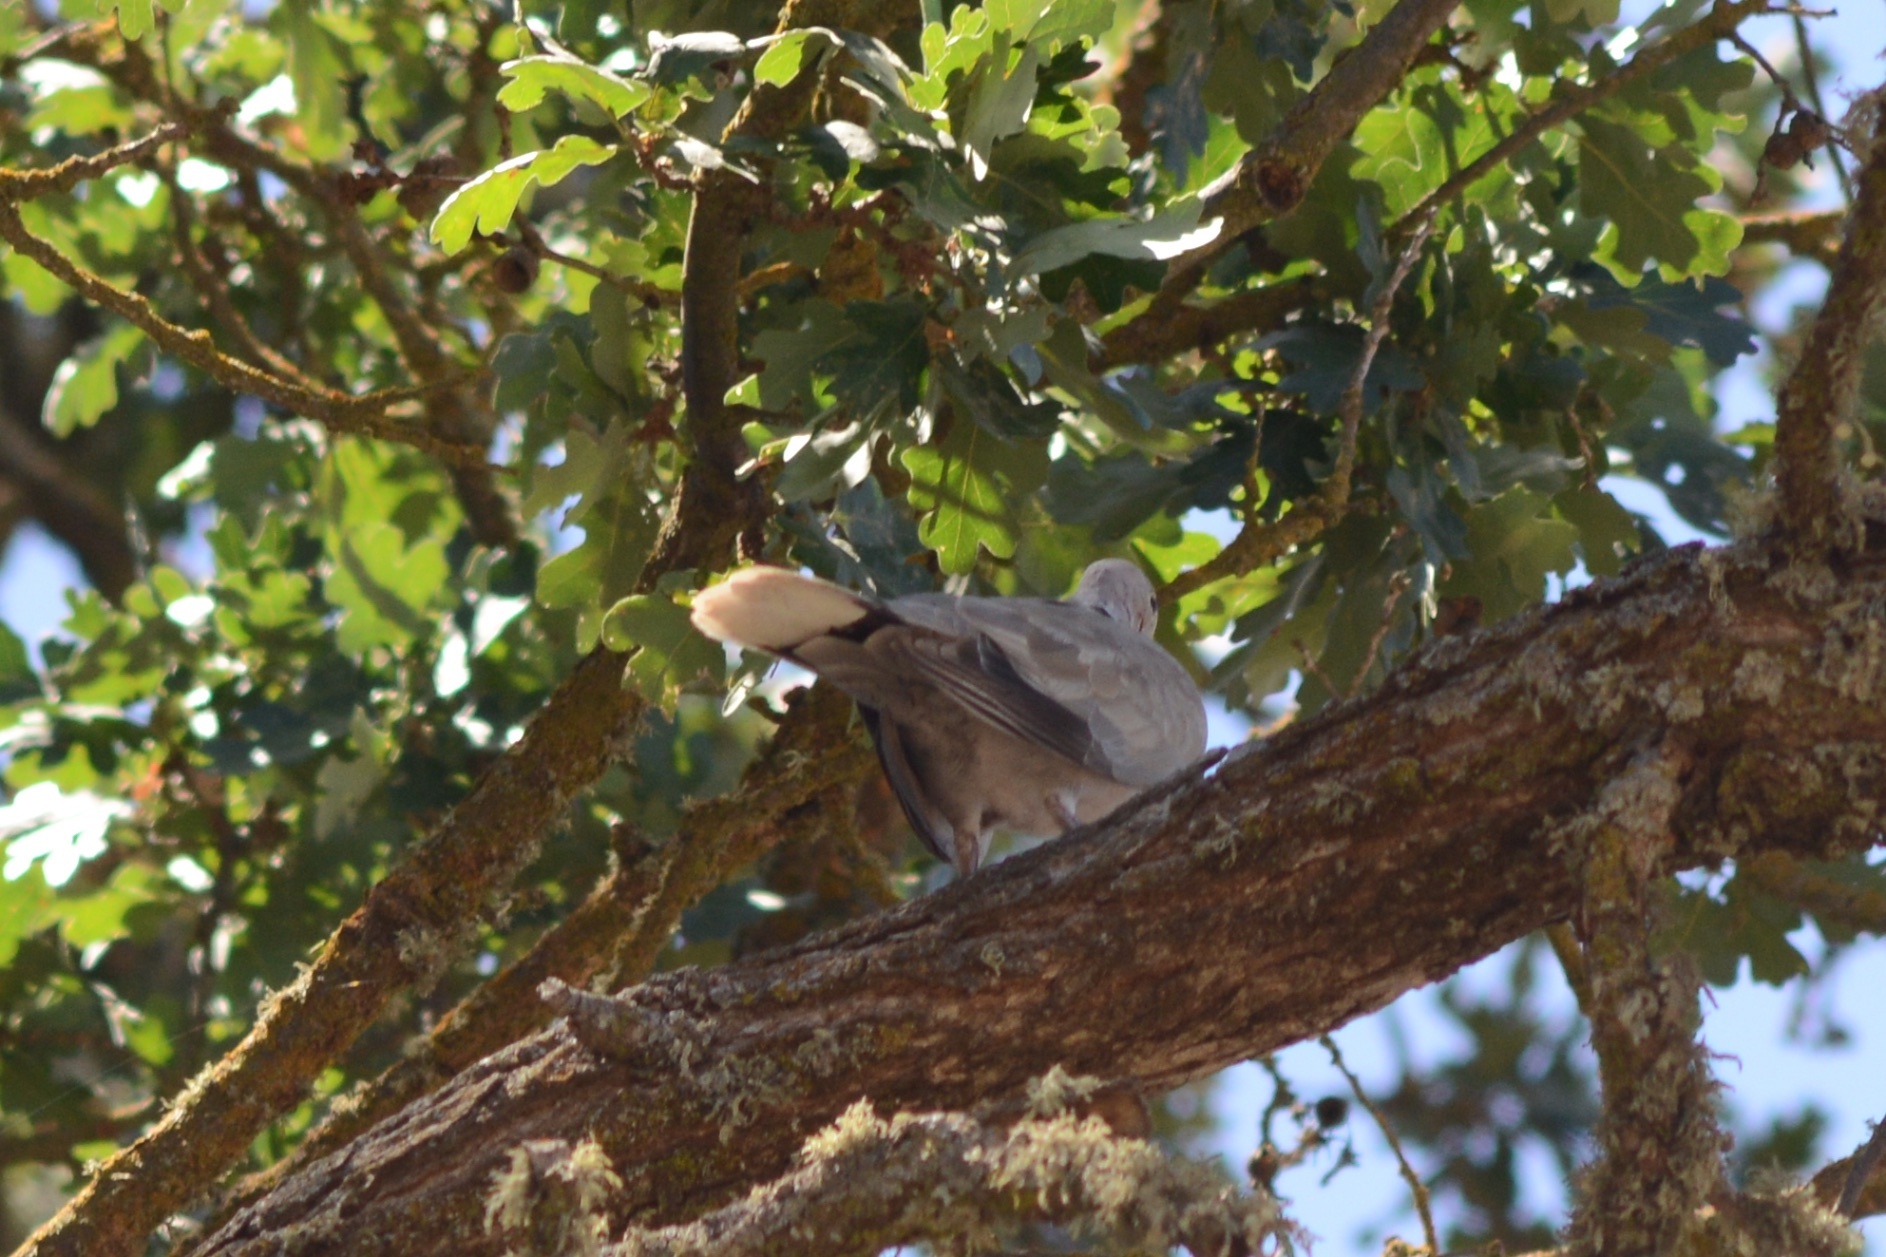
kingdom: Animalia
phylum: Chordata
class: Aves
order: Columbiformes
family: Columbidae
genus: Streptopelia
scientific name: Streptopelia decaocto
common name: Eurasian collared dove
